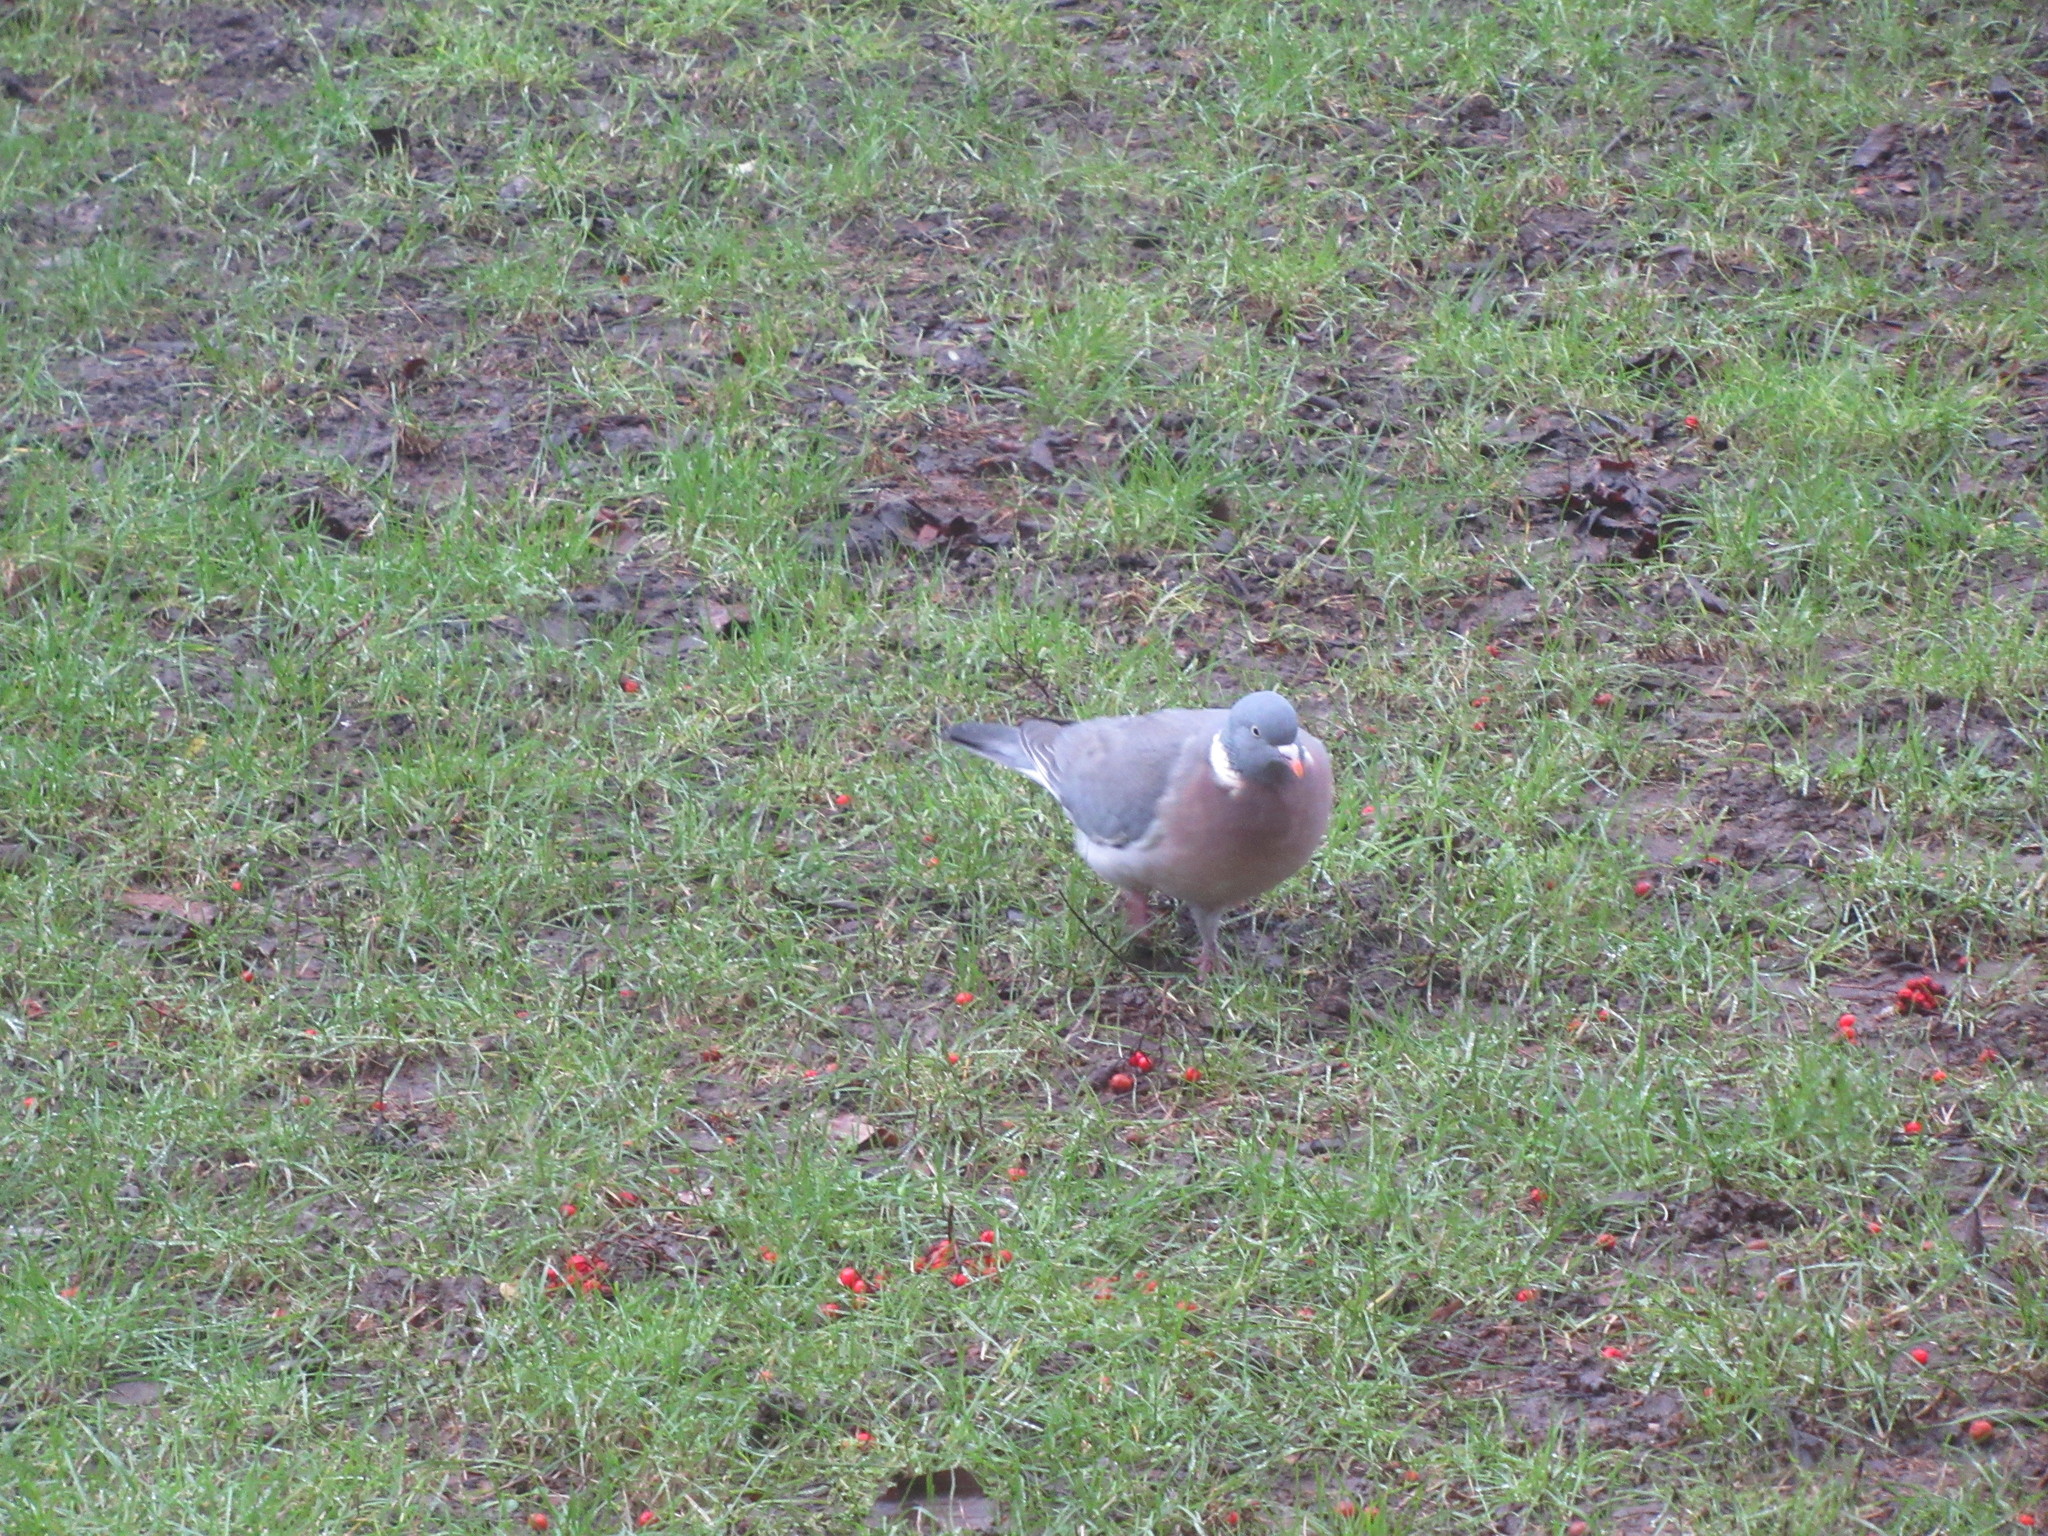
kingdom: Animalia
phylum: Chordata
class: Aves
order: Columbiformes
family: Columbidae
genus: Columba
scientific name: Columba palumbus
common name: Common wood pigeon
